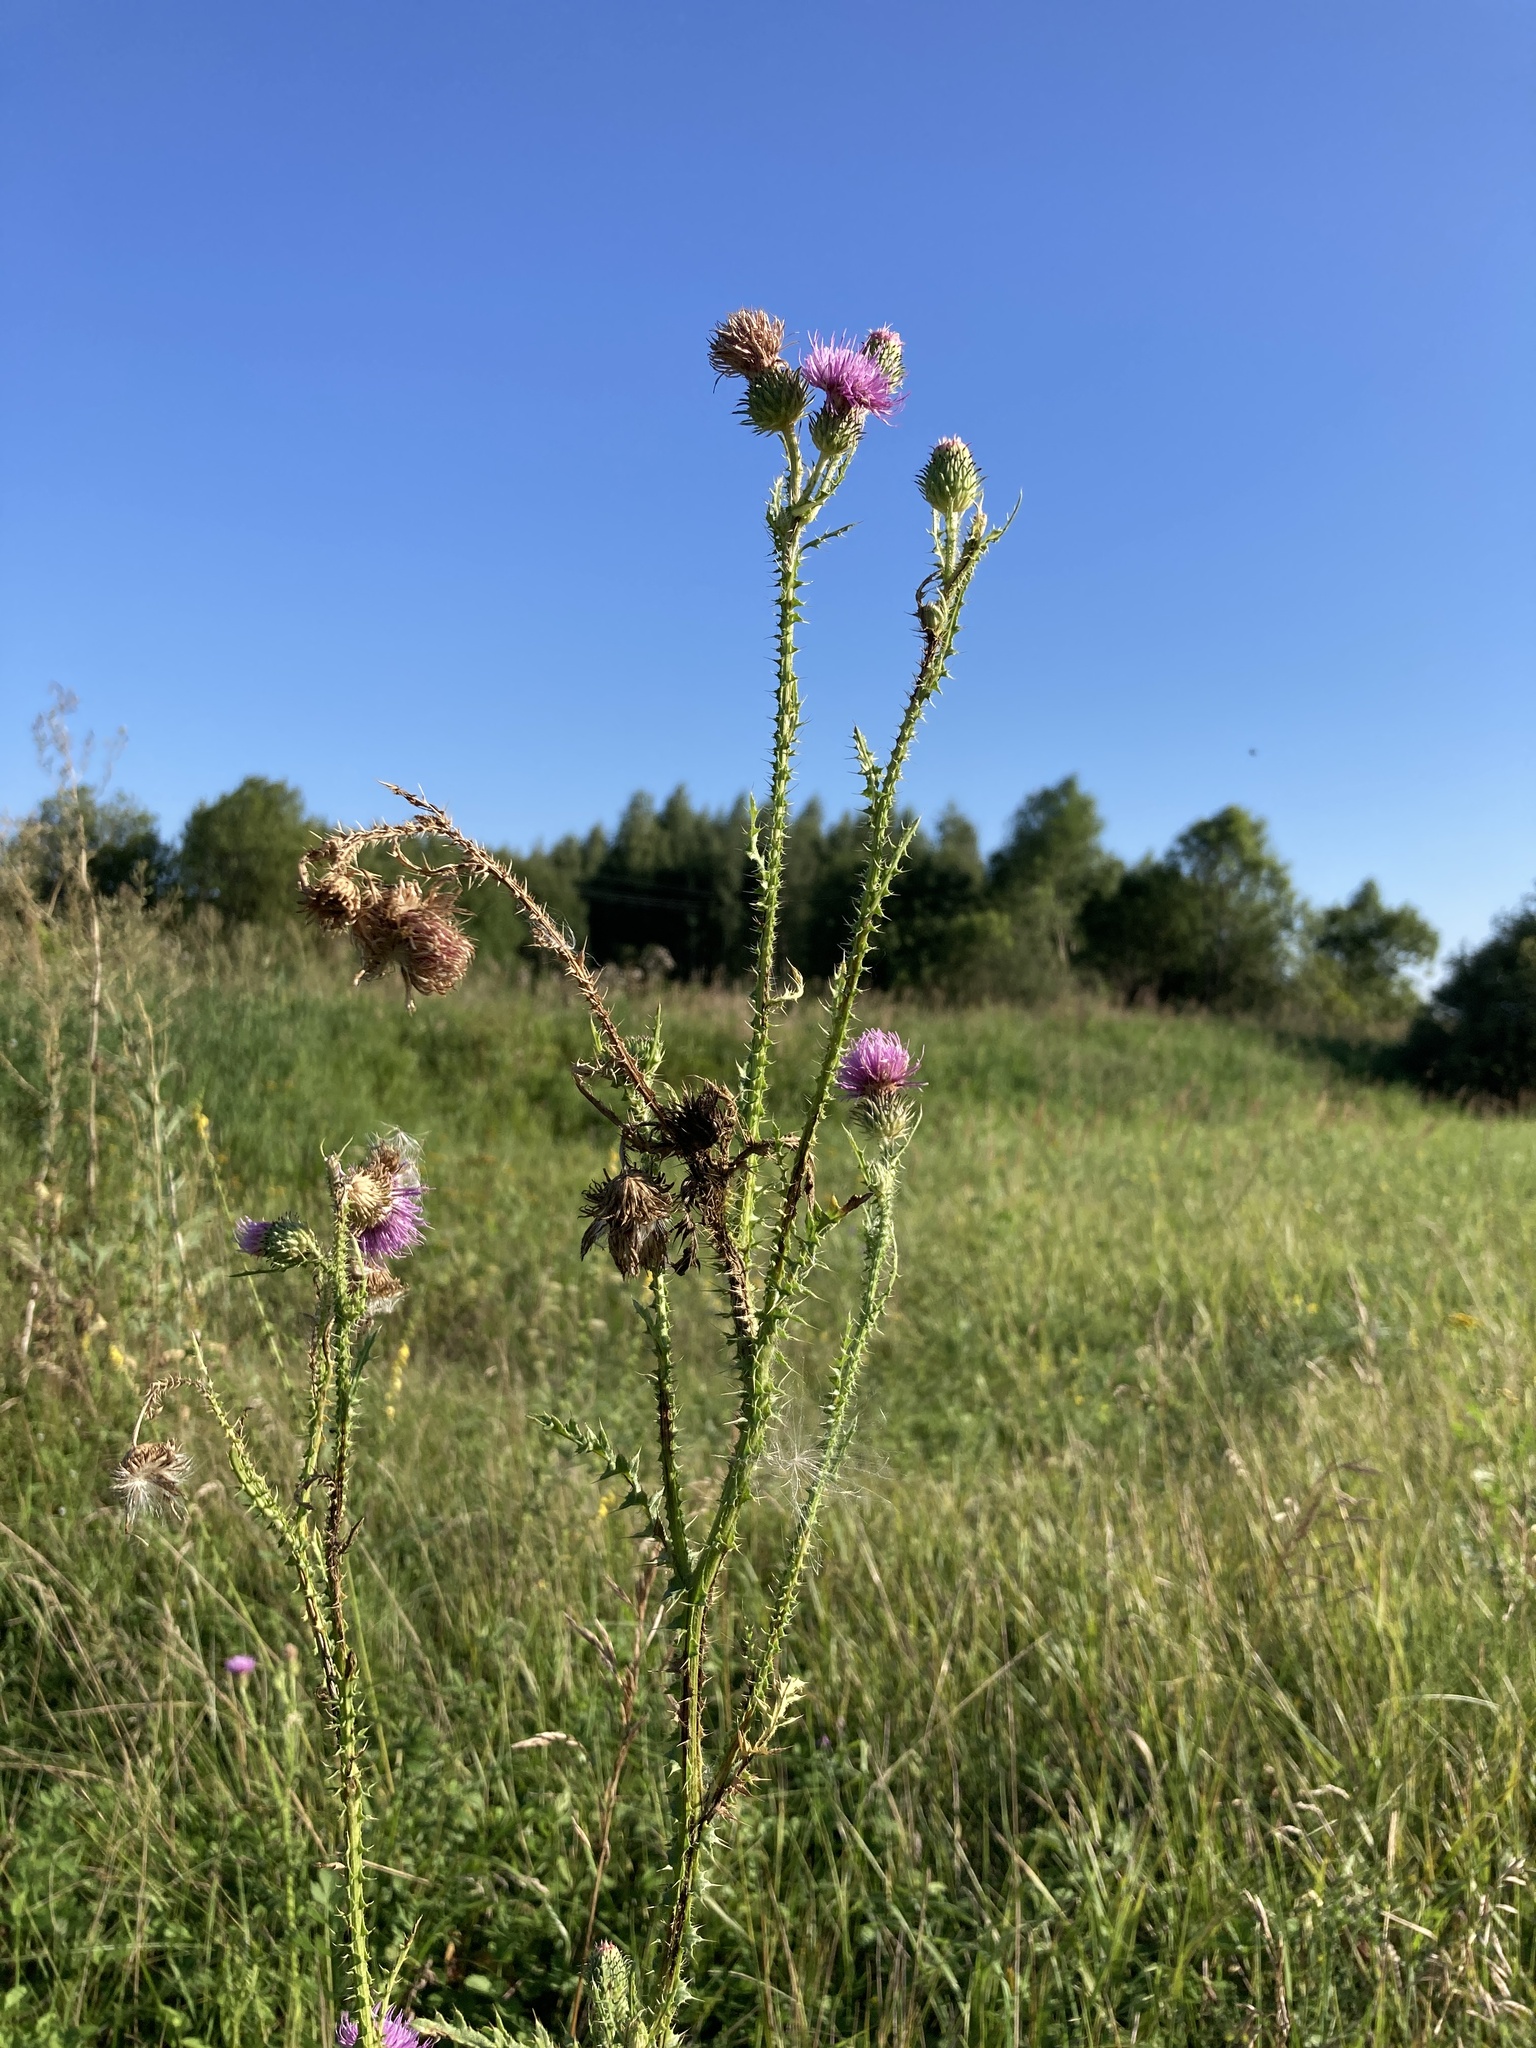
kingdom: Plantae
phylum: Tracheophyta
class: Magnoliopsida
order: Asterales
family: Asteraceae
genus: Carduus
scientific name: Carduus acanthoides
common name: Plumeless thistle
